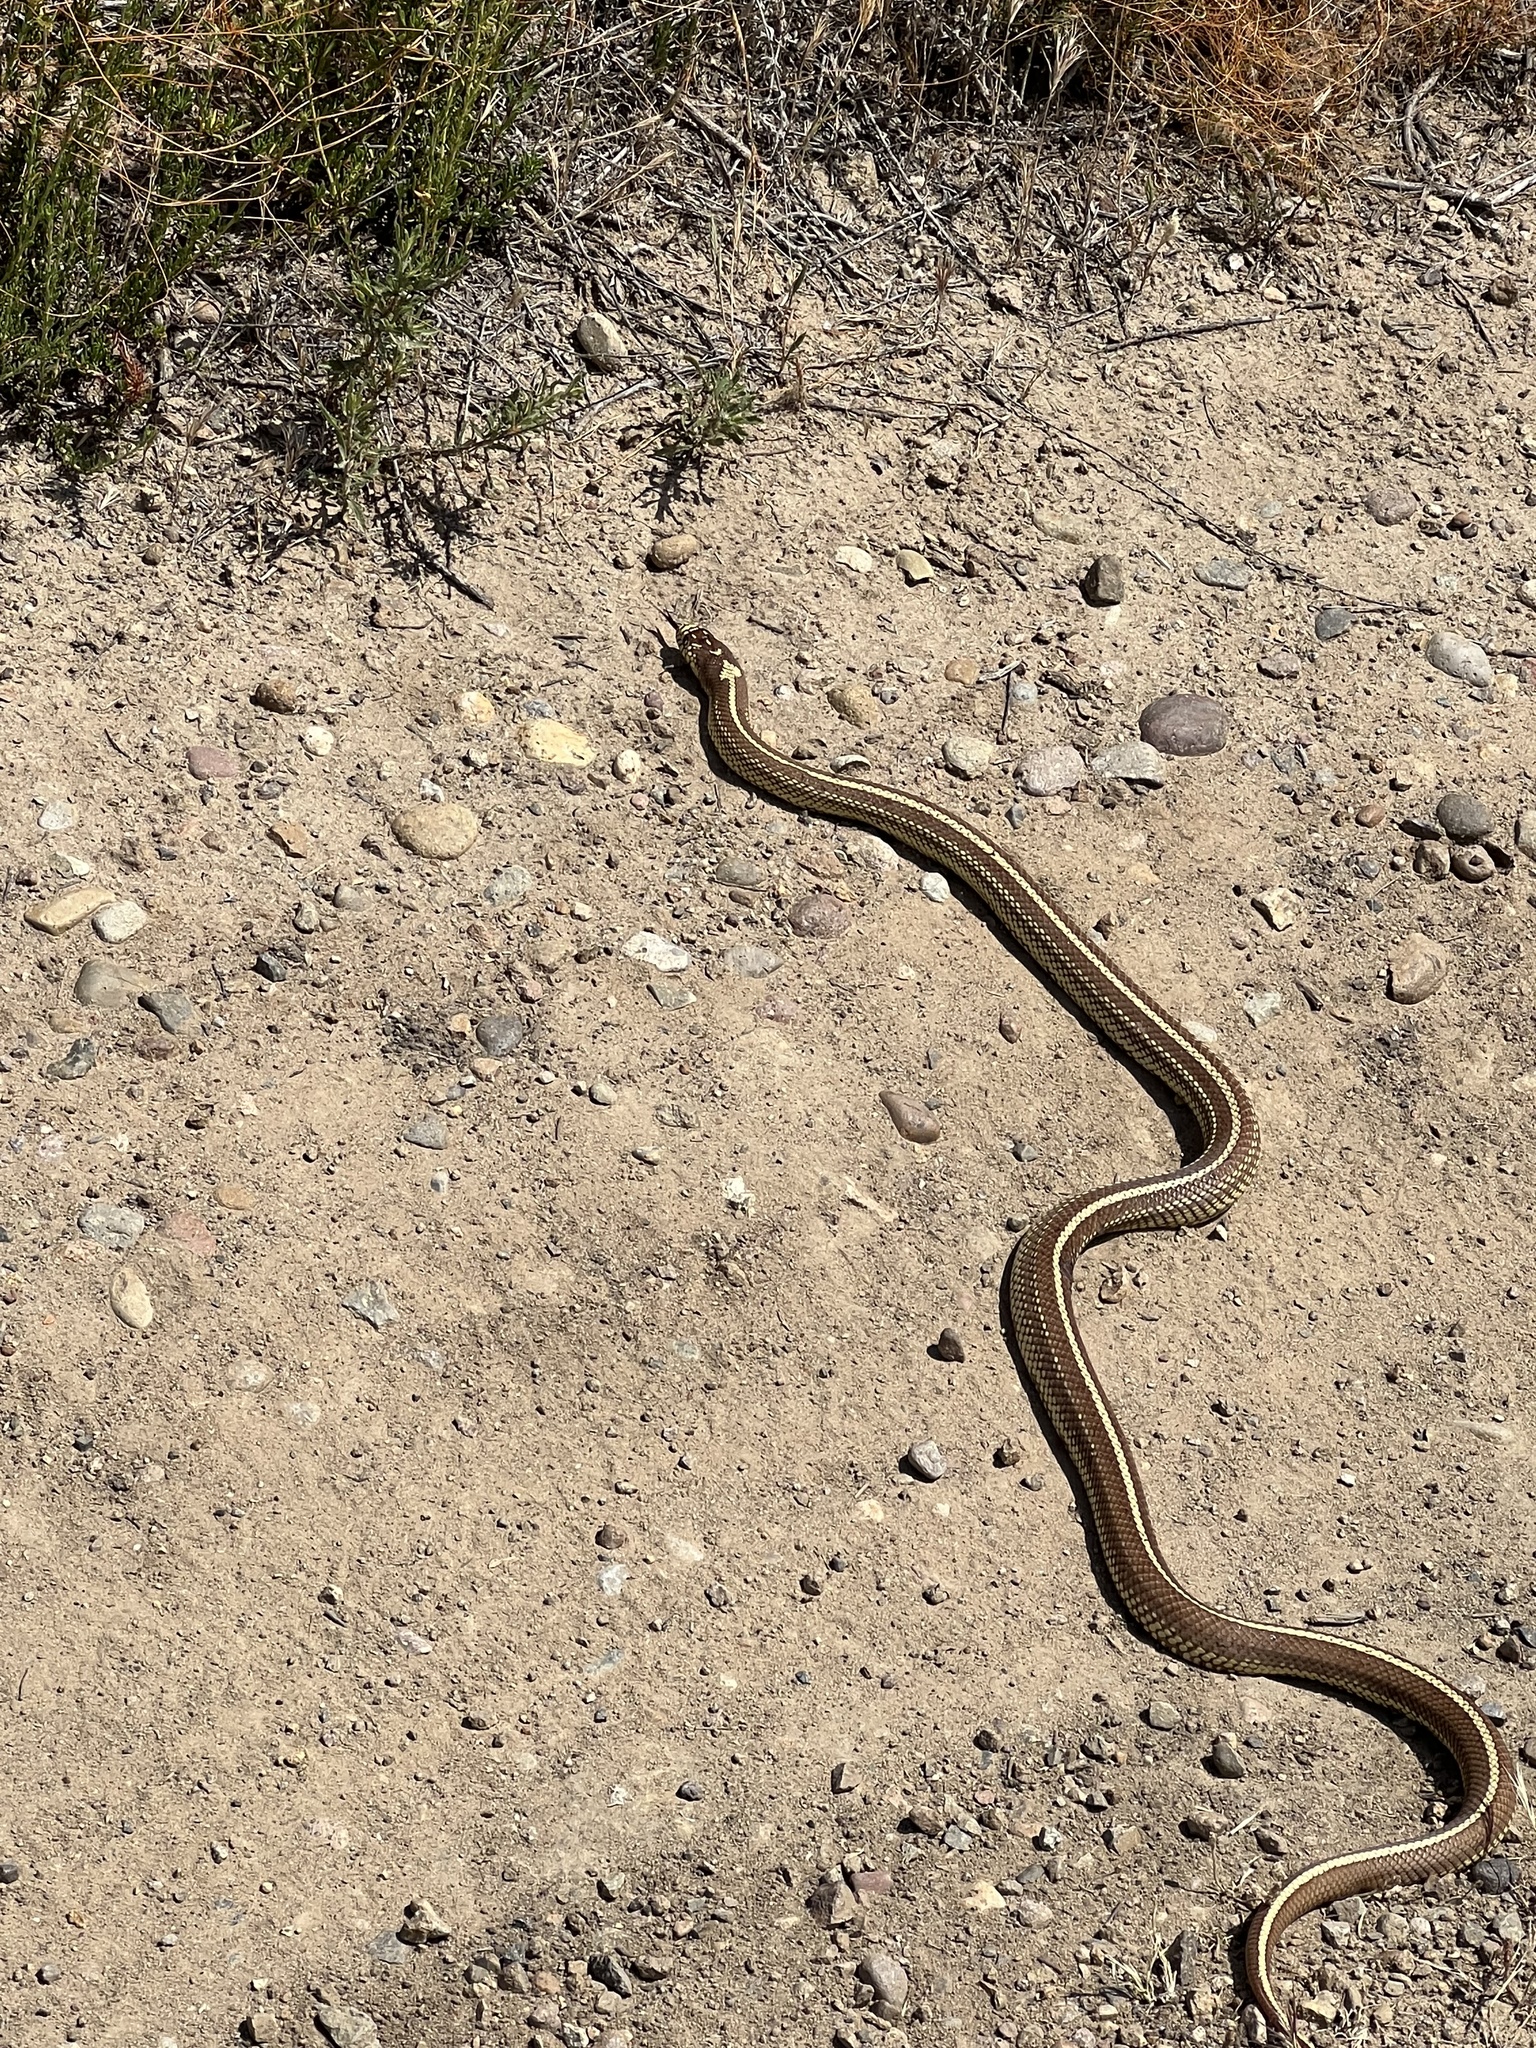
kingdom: Animalia
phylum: Chordata
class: Squamata
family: Colubridae
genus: Lampropeltis
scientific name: Lampropeltis californiae
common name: California kingsnake
